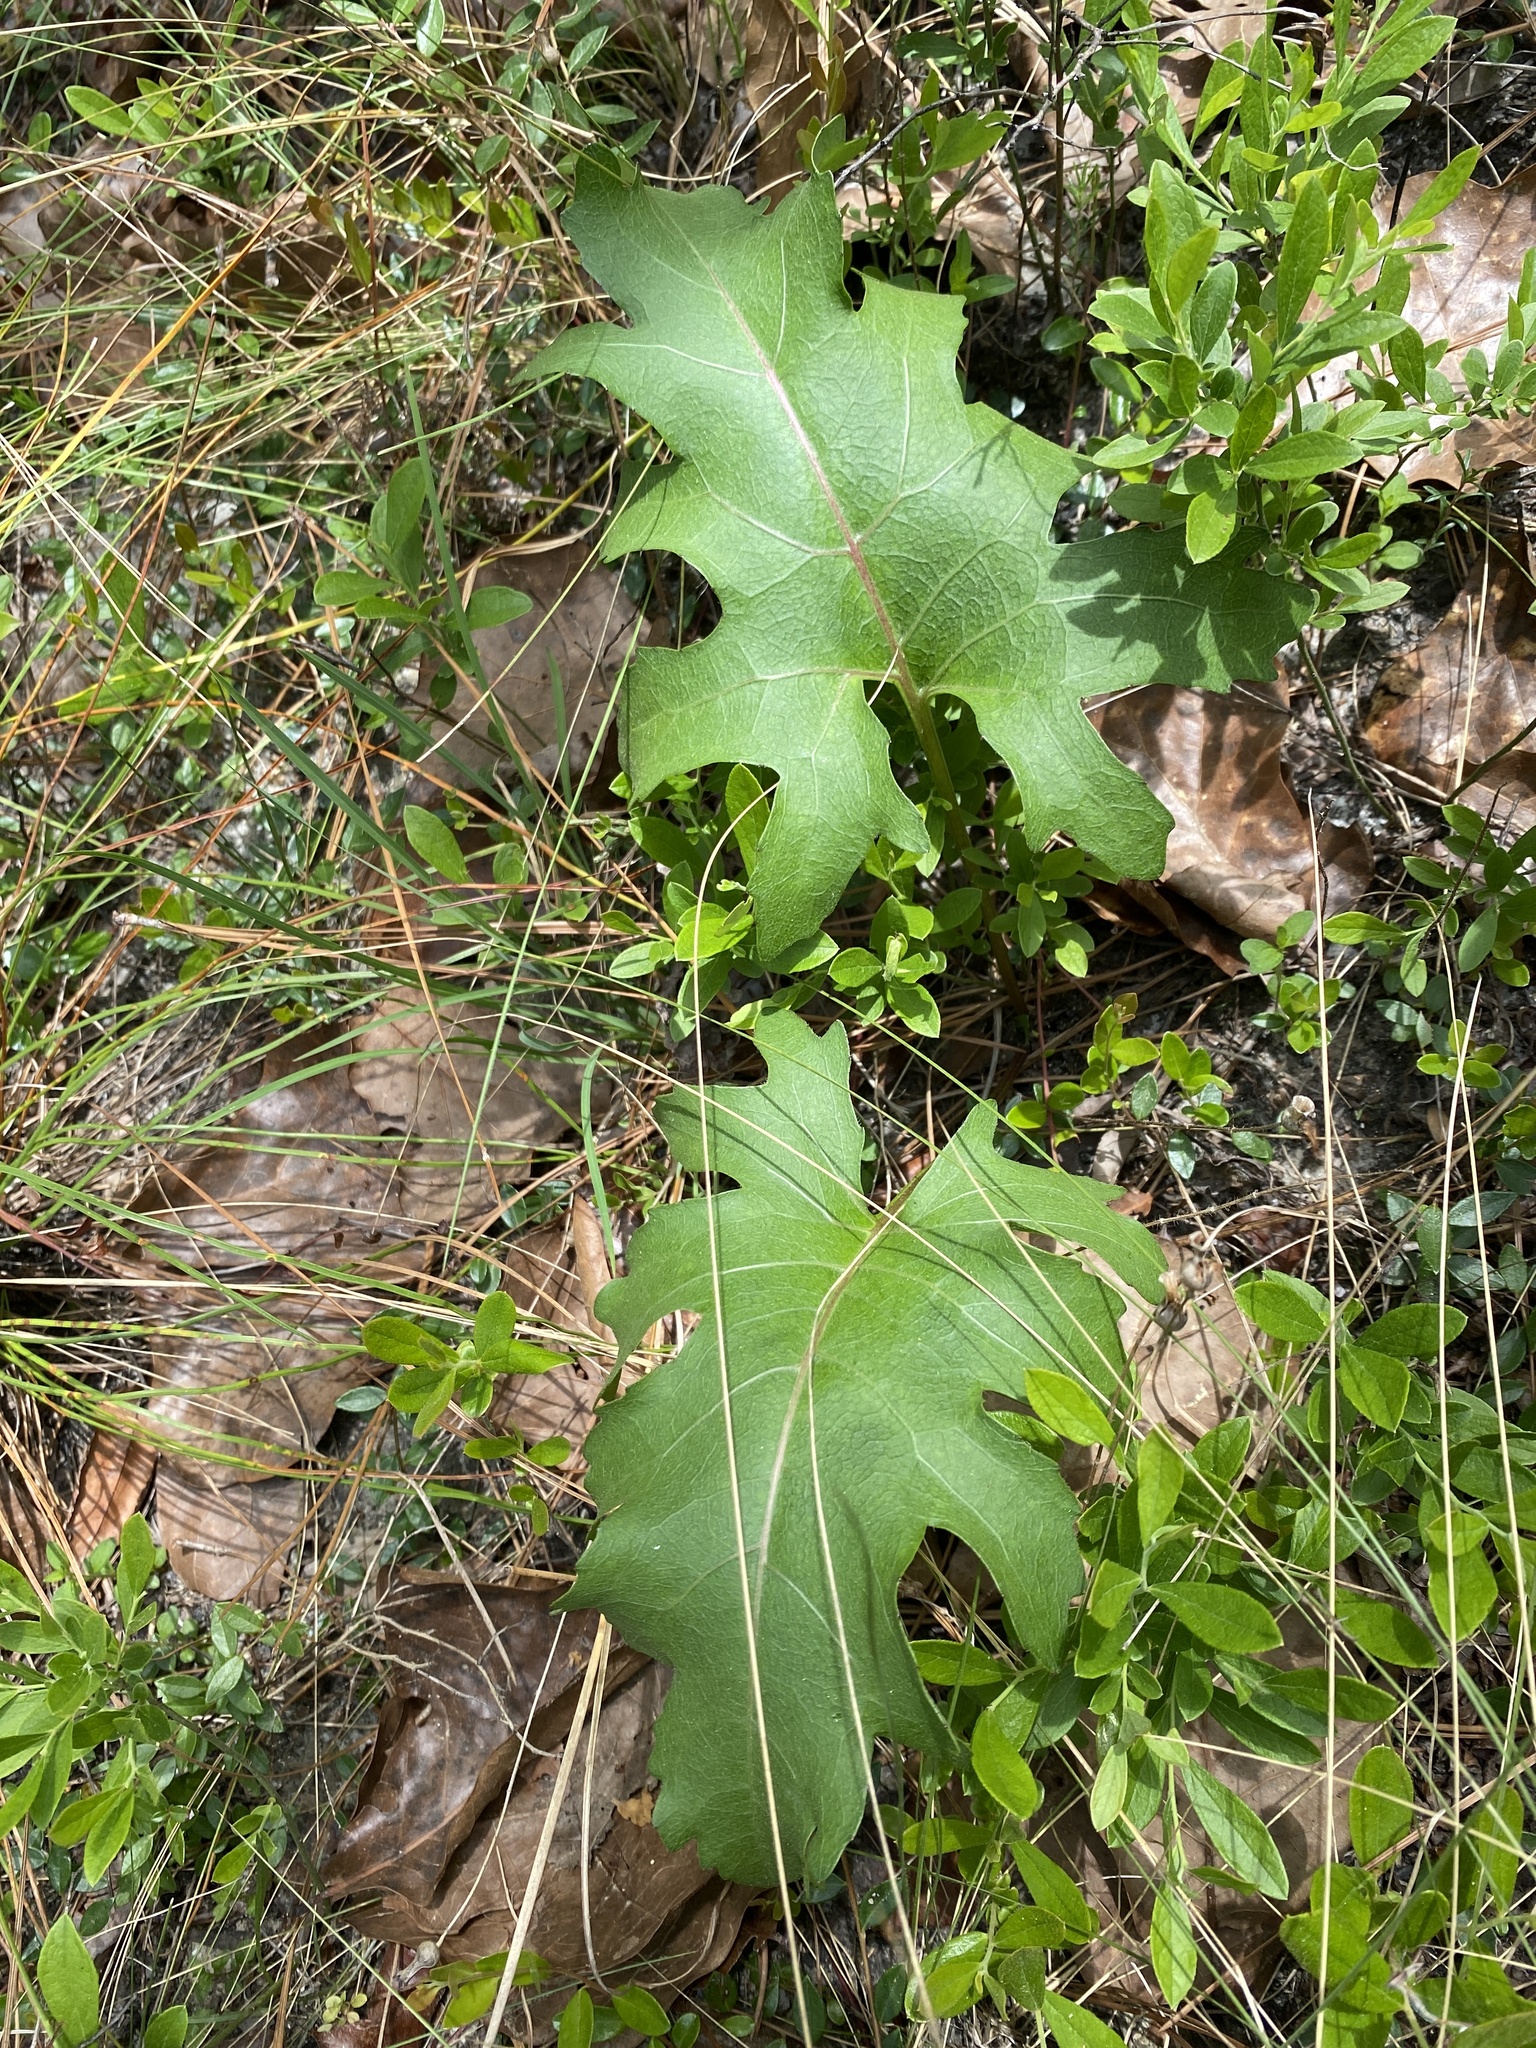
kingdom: Plantae
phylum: Tracheophyta
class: Magnoliopsida
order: Asterales
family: Asteraceae
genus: Silphium
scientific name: Silphium compositum
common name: Lesser basal-leaf rosinweed
